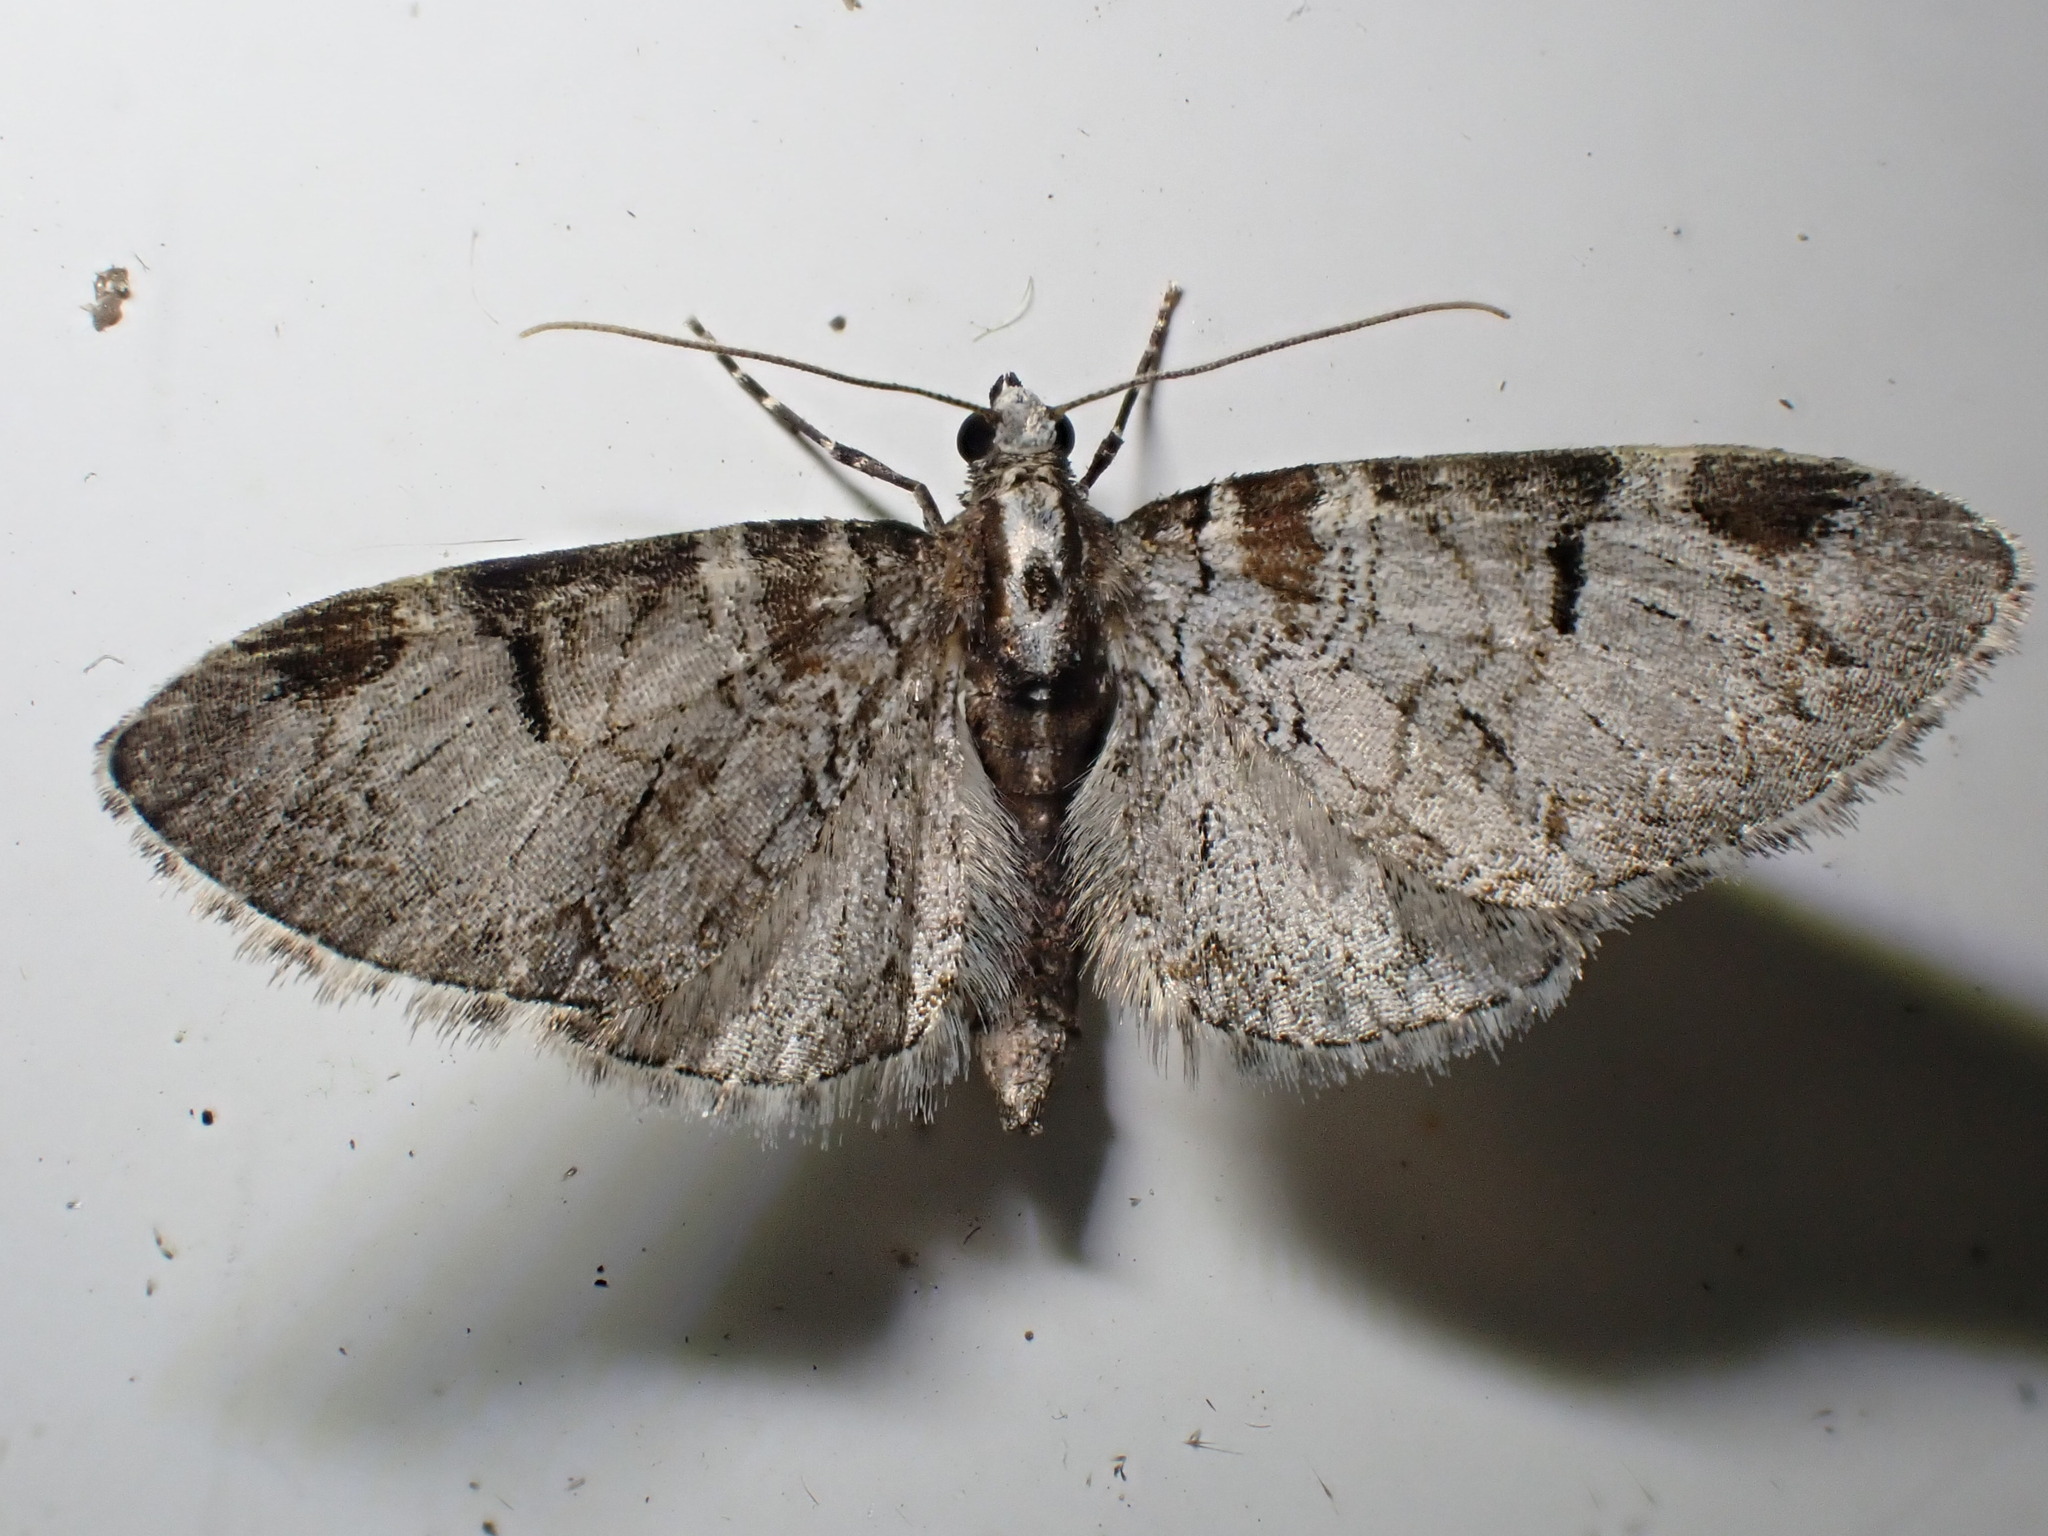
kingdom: Animalia
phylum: Arthropoda
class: Insecta
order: Lepidoptera
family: Geometridae
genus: Eupithecia
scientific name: Eupithecia insigniata
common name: Pinion-spotted pug
